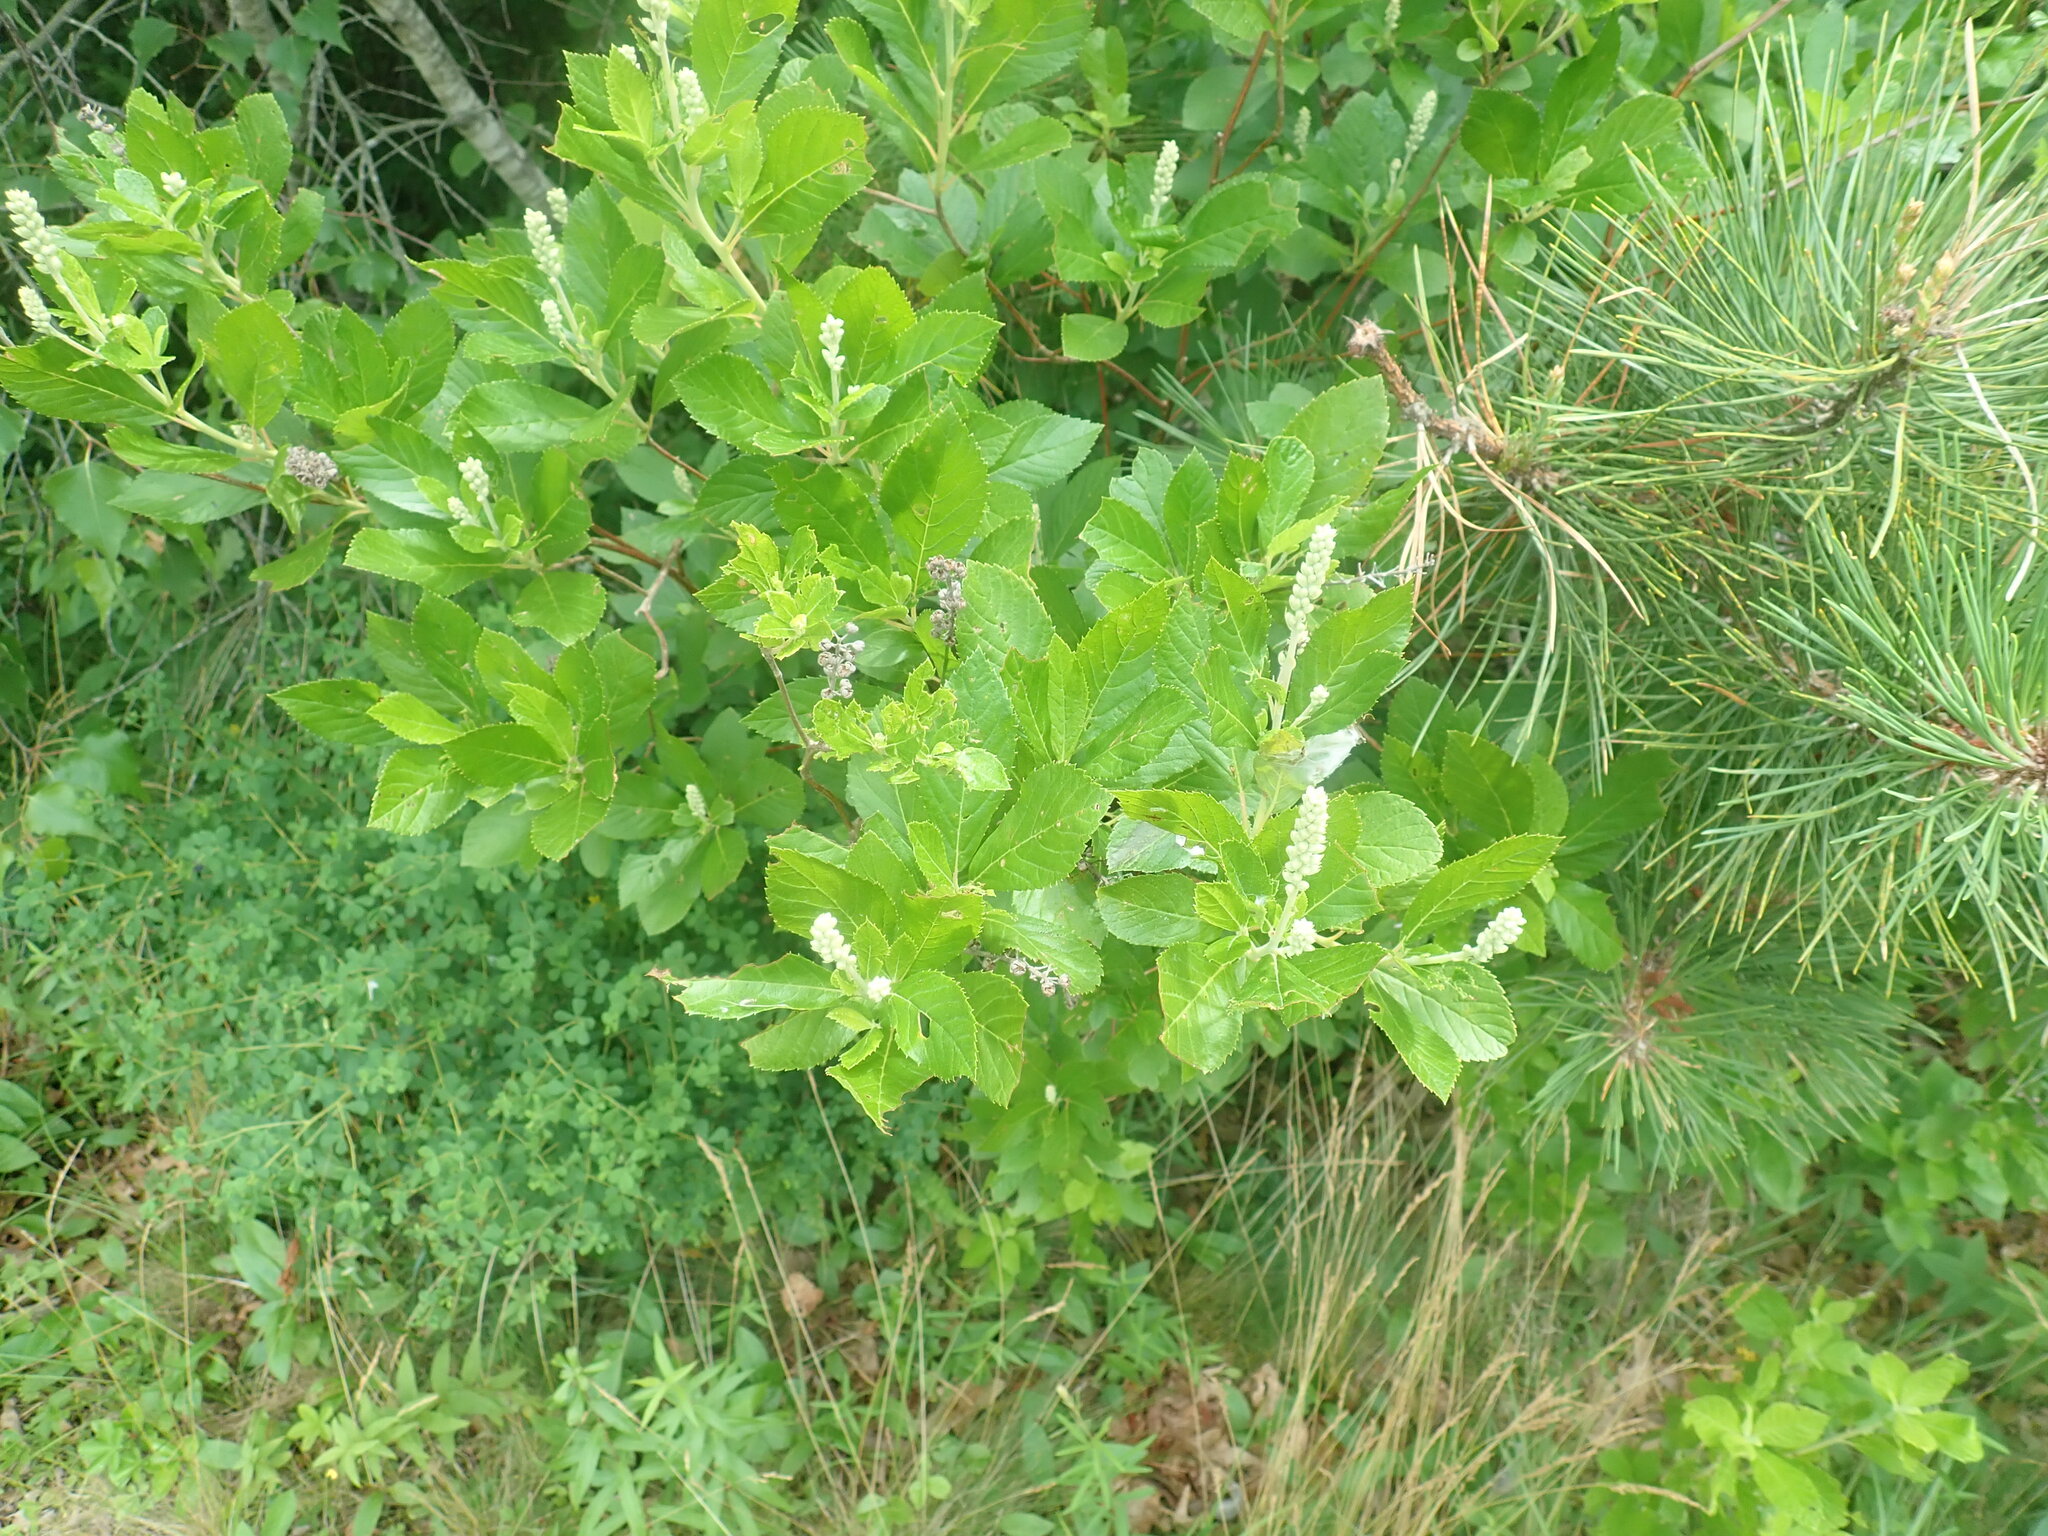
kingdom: Plantae
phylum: Tracheophyta
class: Magnoliopsida
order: Ericales
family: Clethraceae
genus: Clethra
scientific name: Clethra alnifolia
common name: Sweet pepperbush
